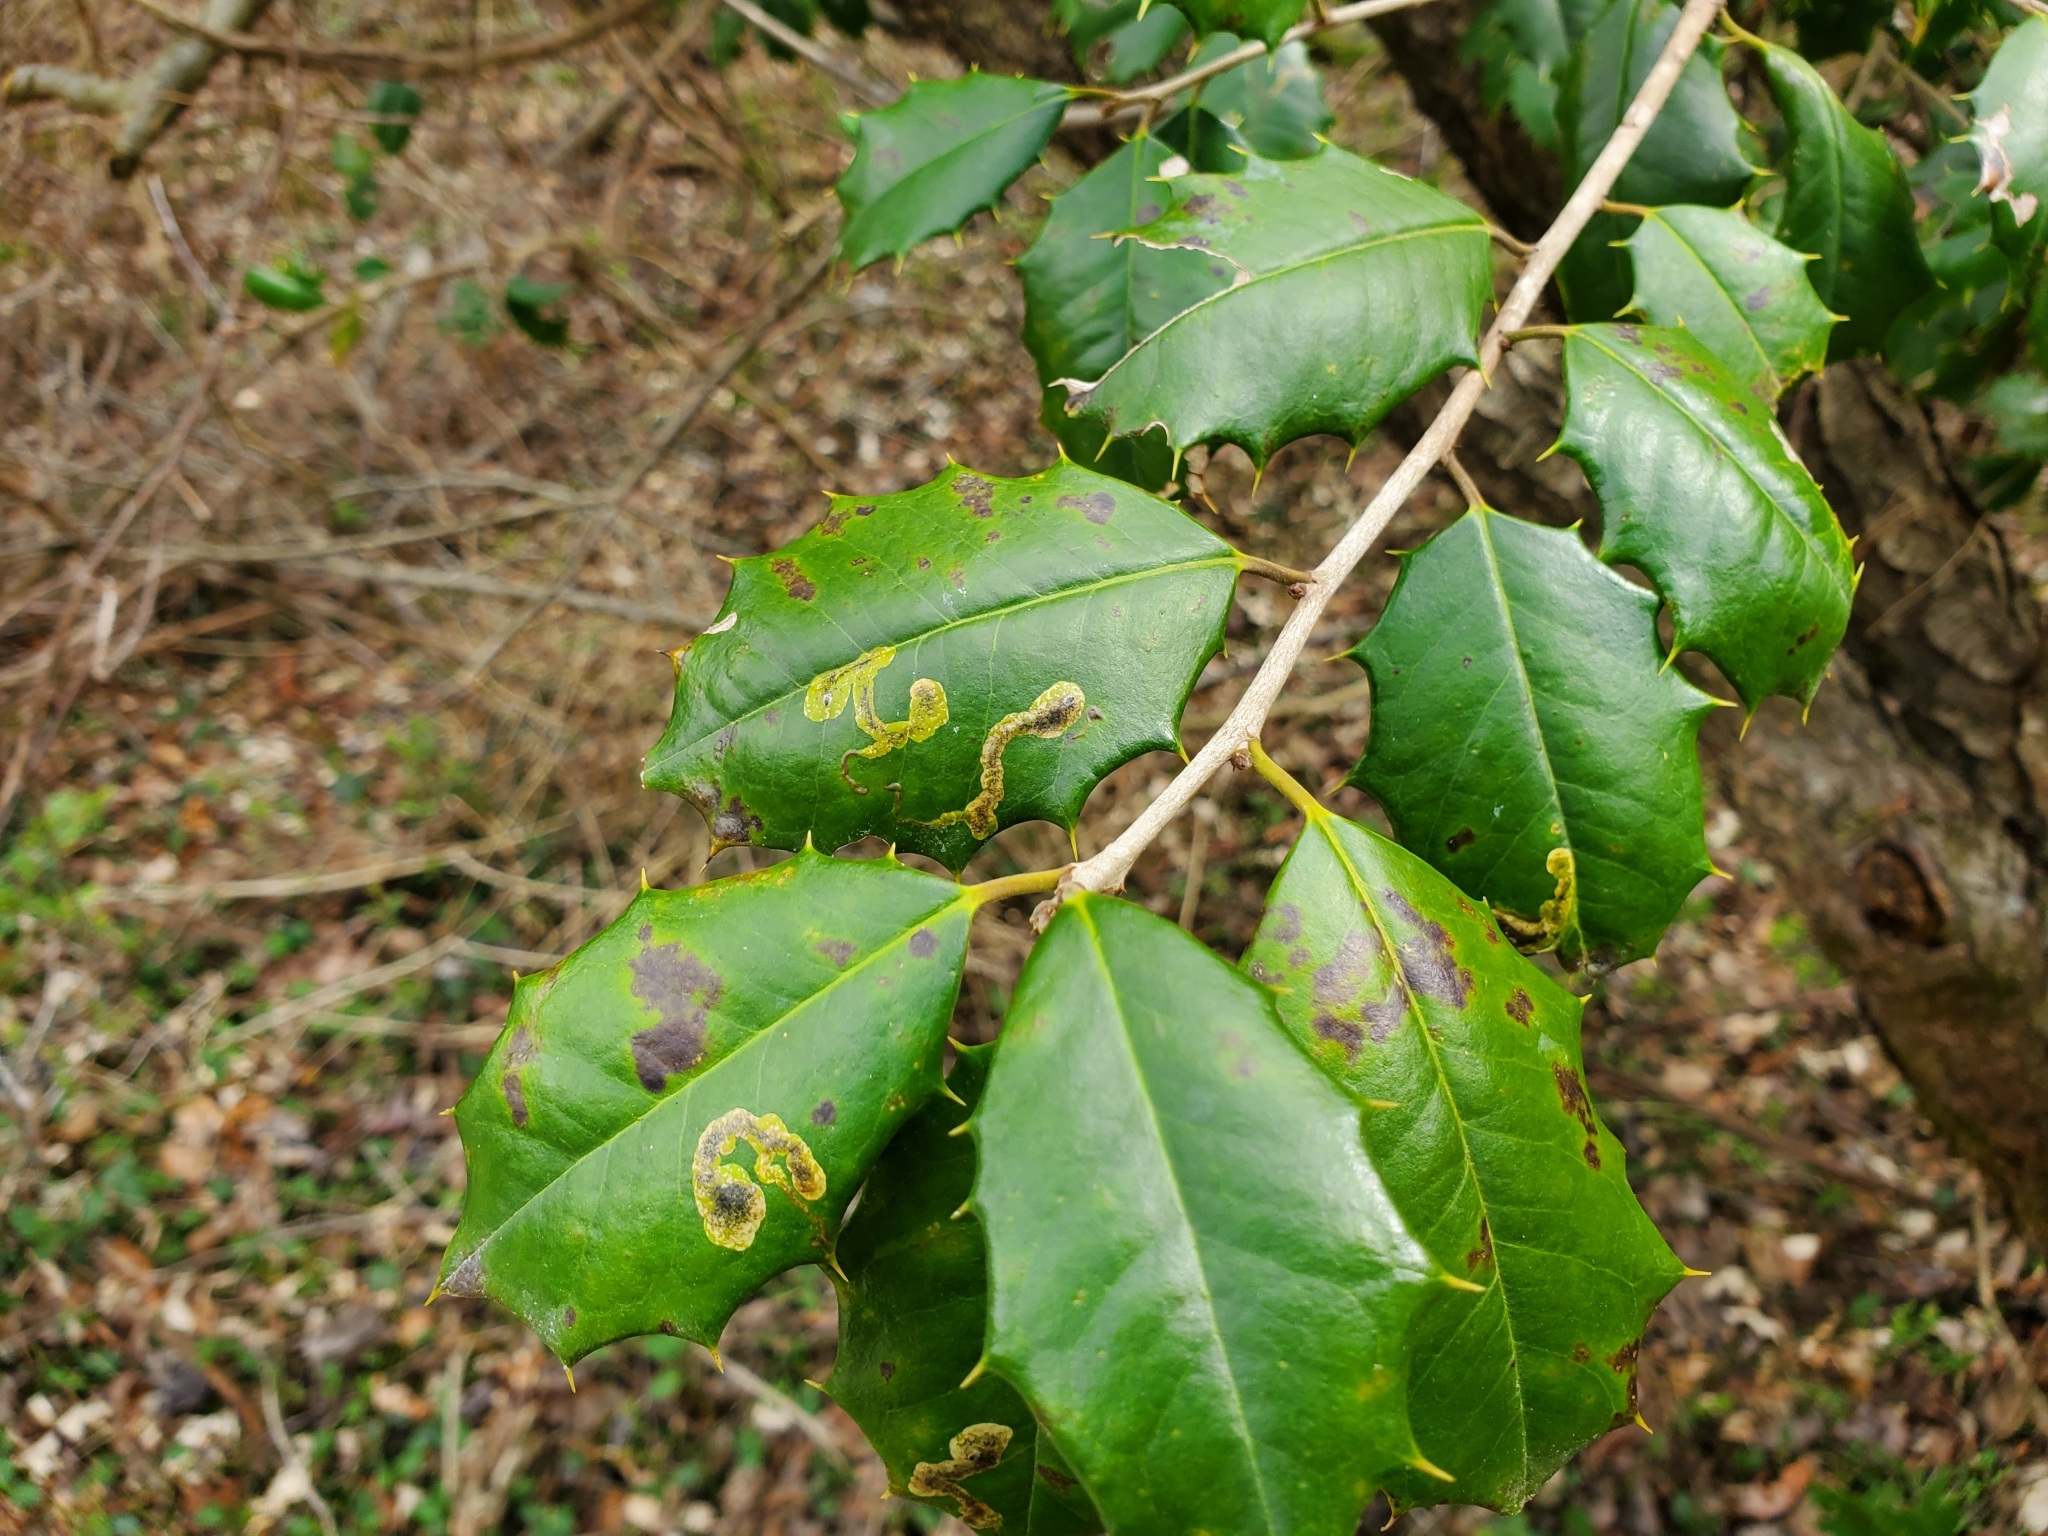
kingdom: Animalia
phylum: Arthropoda
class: Insecta
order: Diptera
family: Agromyzidae
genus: Phytomyza
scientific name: Phytomyza ilicicola
